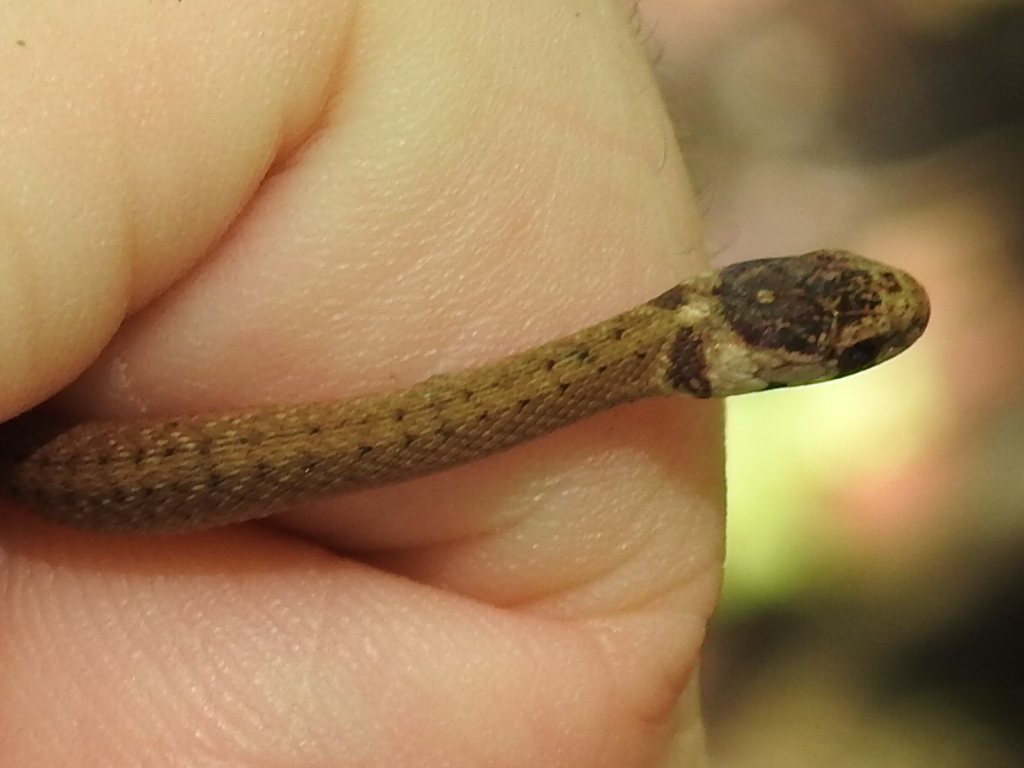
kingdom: Animalia
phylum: Chordata
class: Squamata
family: Colubridae
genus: Storeria
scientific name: Storeria dekayi
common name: (dekay’s) brown snake
